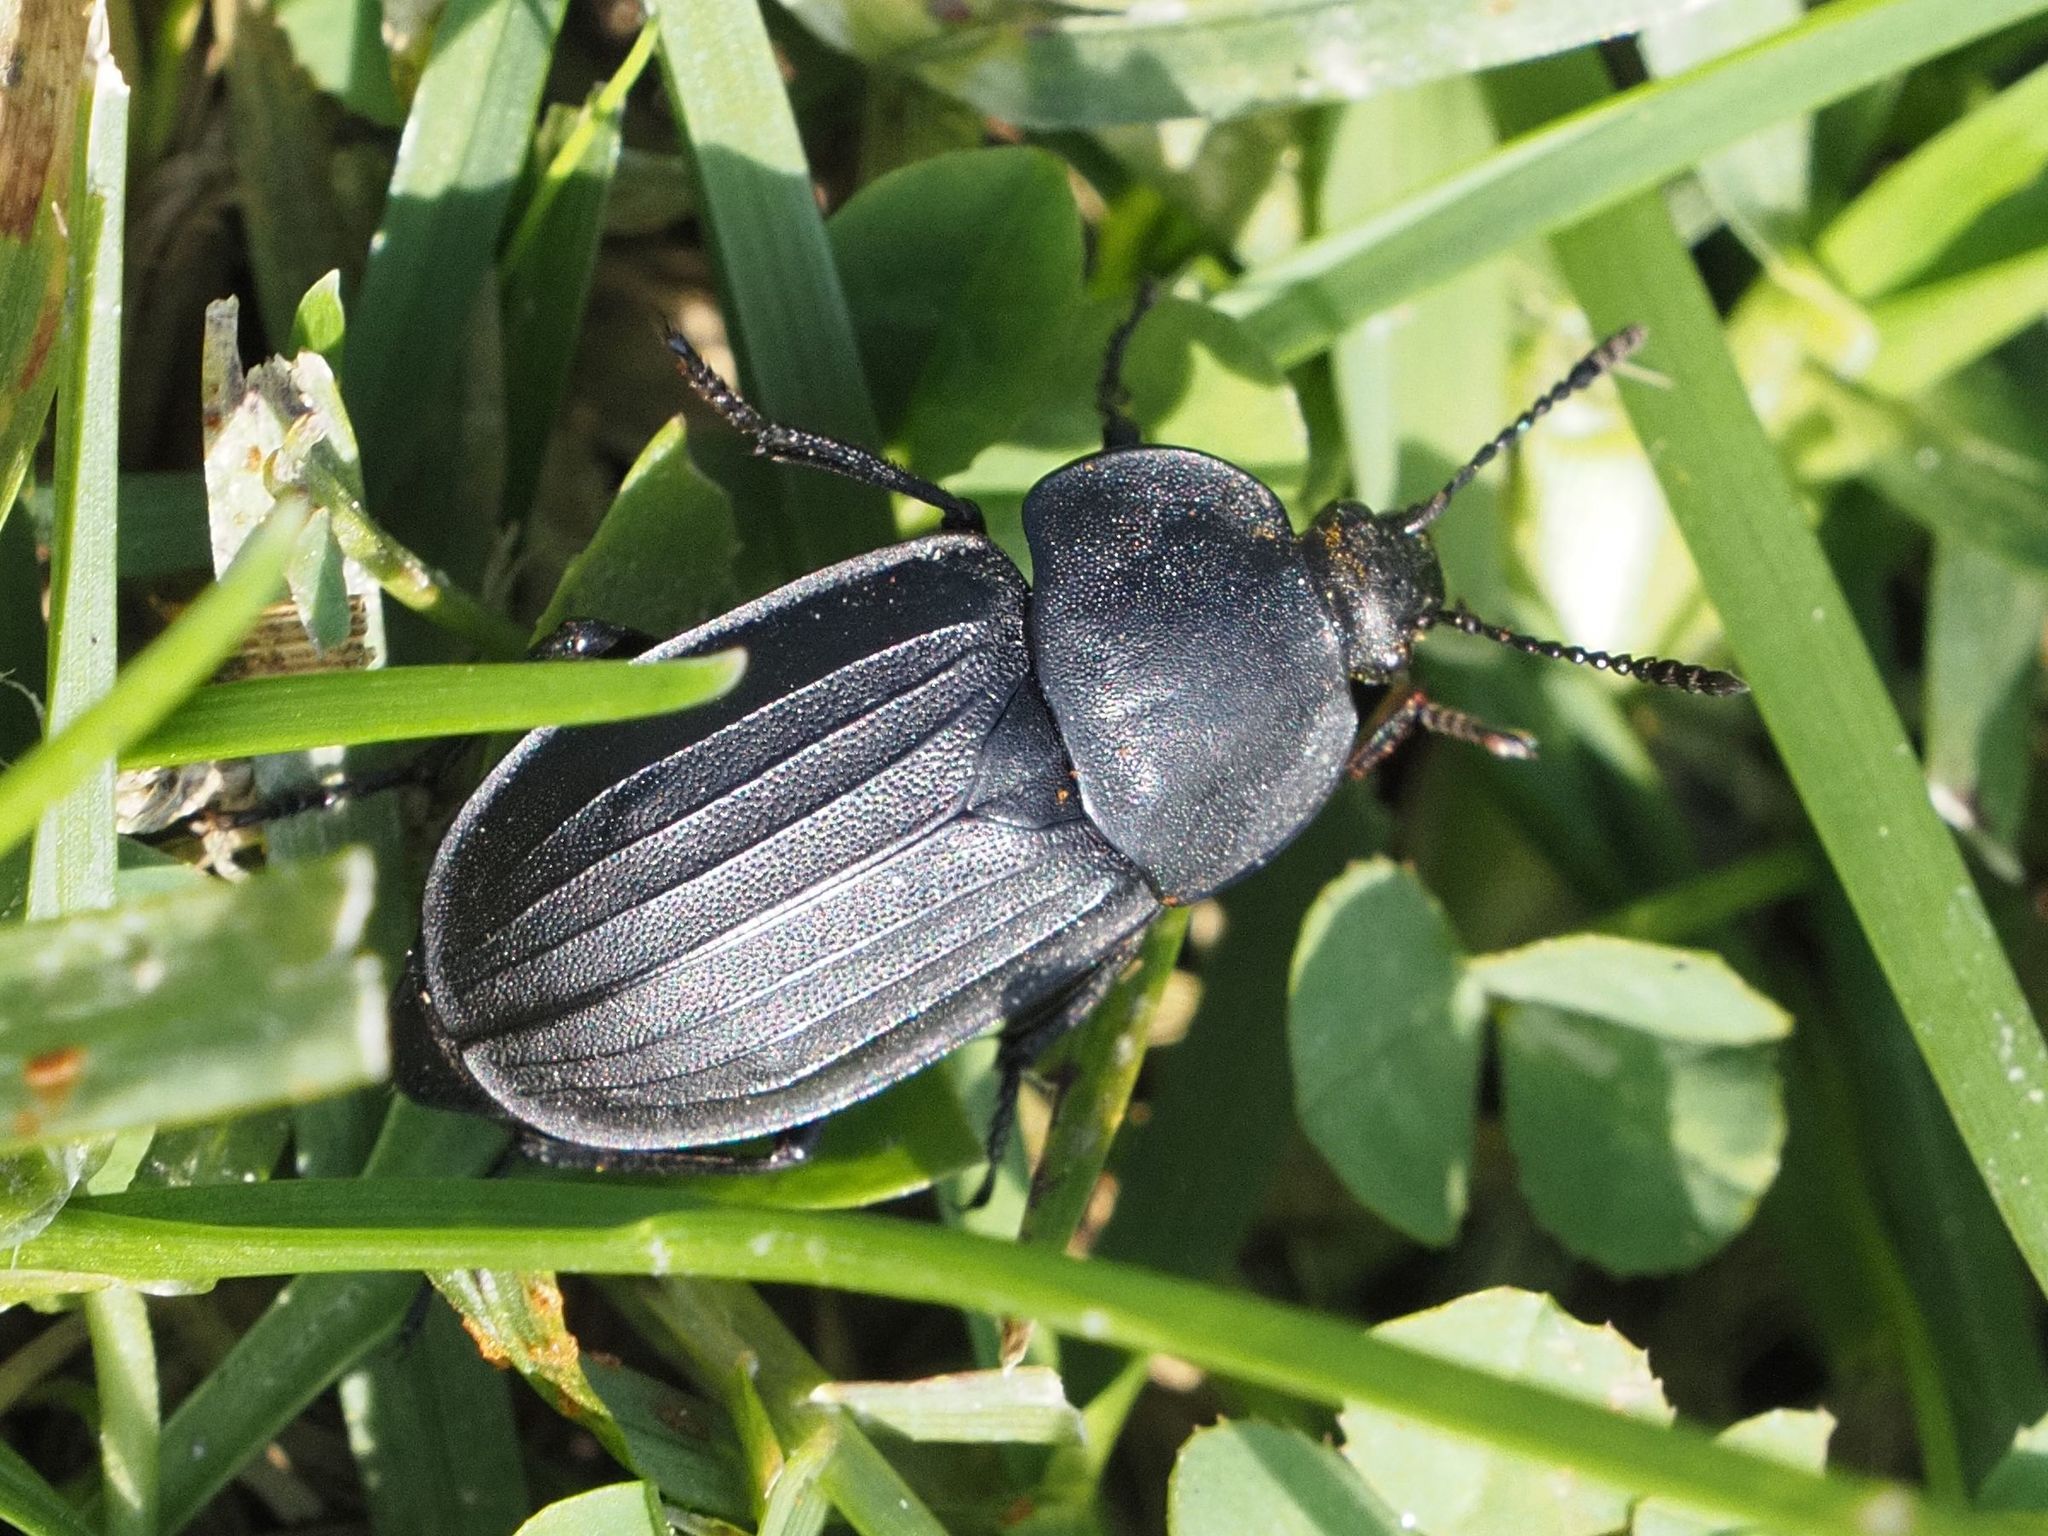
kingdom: Animalia
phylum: Arthropoda
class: Insecta
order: Coleoptera
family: Staphylinidae
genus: Silpha
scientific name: Silpha tristis
